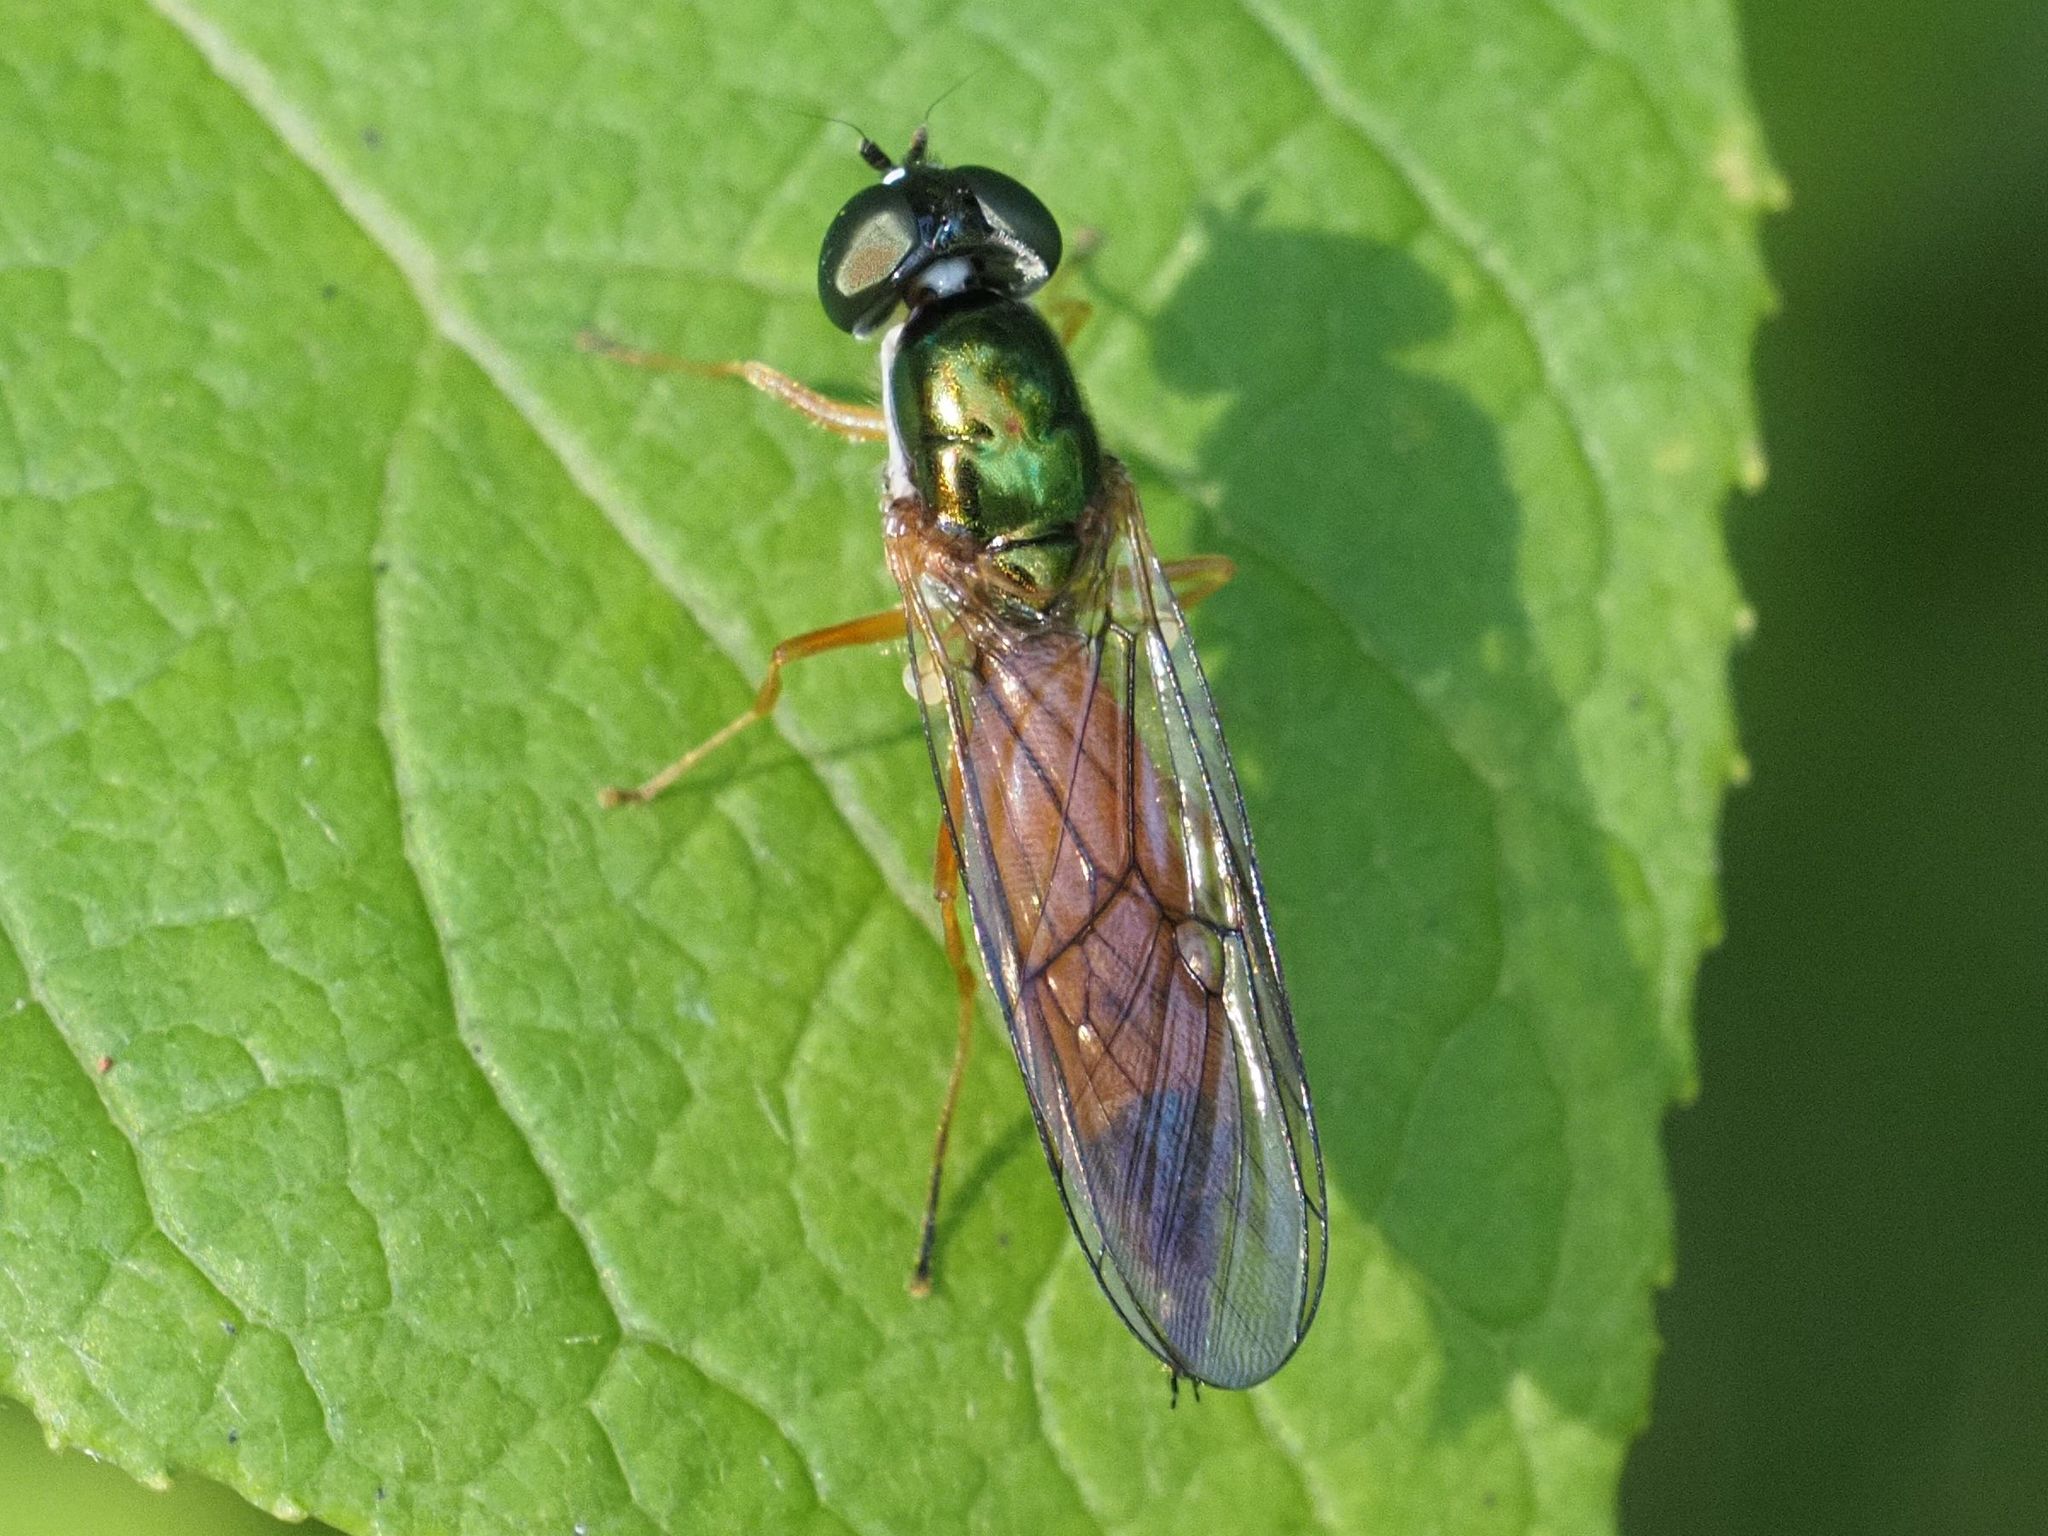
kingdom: Animalia
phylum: Arthropoda
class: Insecta
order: Diptera
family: Stratiomyidae
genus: Sargus
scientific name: Sargus bipunctatus
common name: Twin-spot centurion
